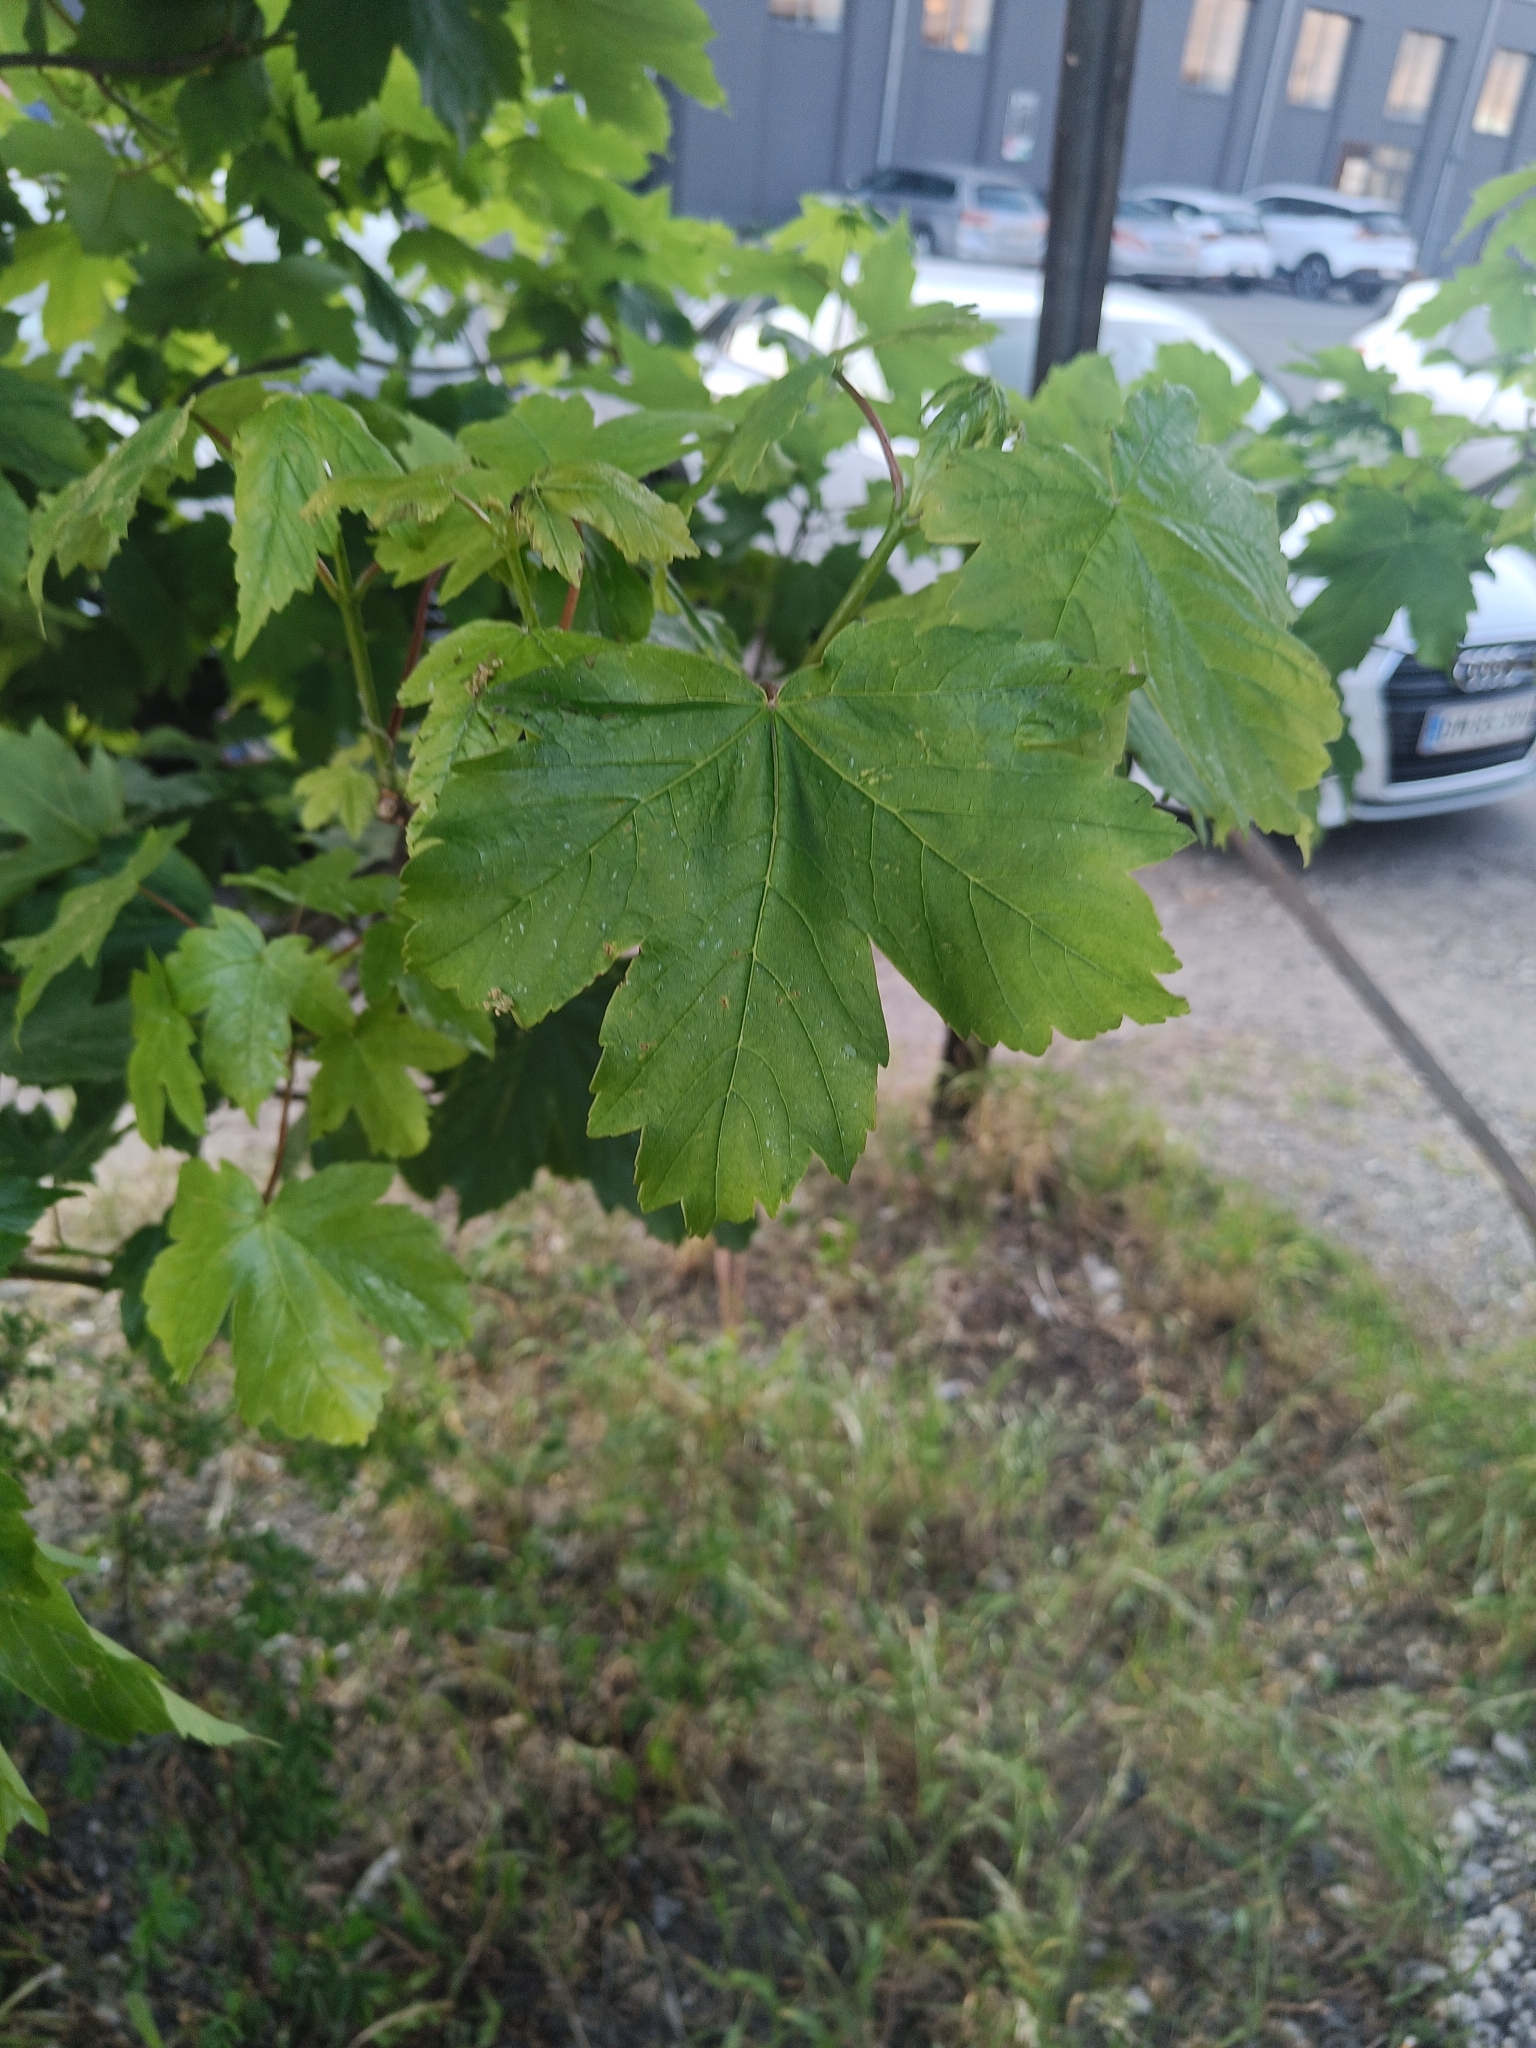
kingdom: Plantae
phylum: Tracheophyta
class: Magnoliopsida
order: Sapindales
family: Sapindaceae
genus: Acer
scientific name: Acer pseudoplatanus
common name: Sycamore
